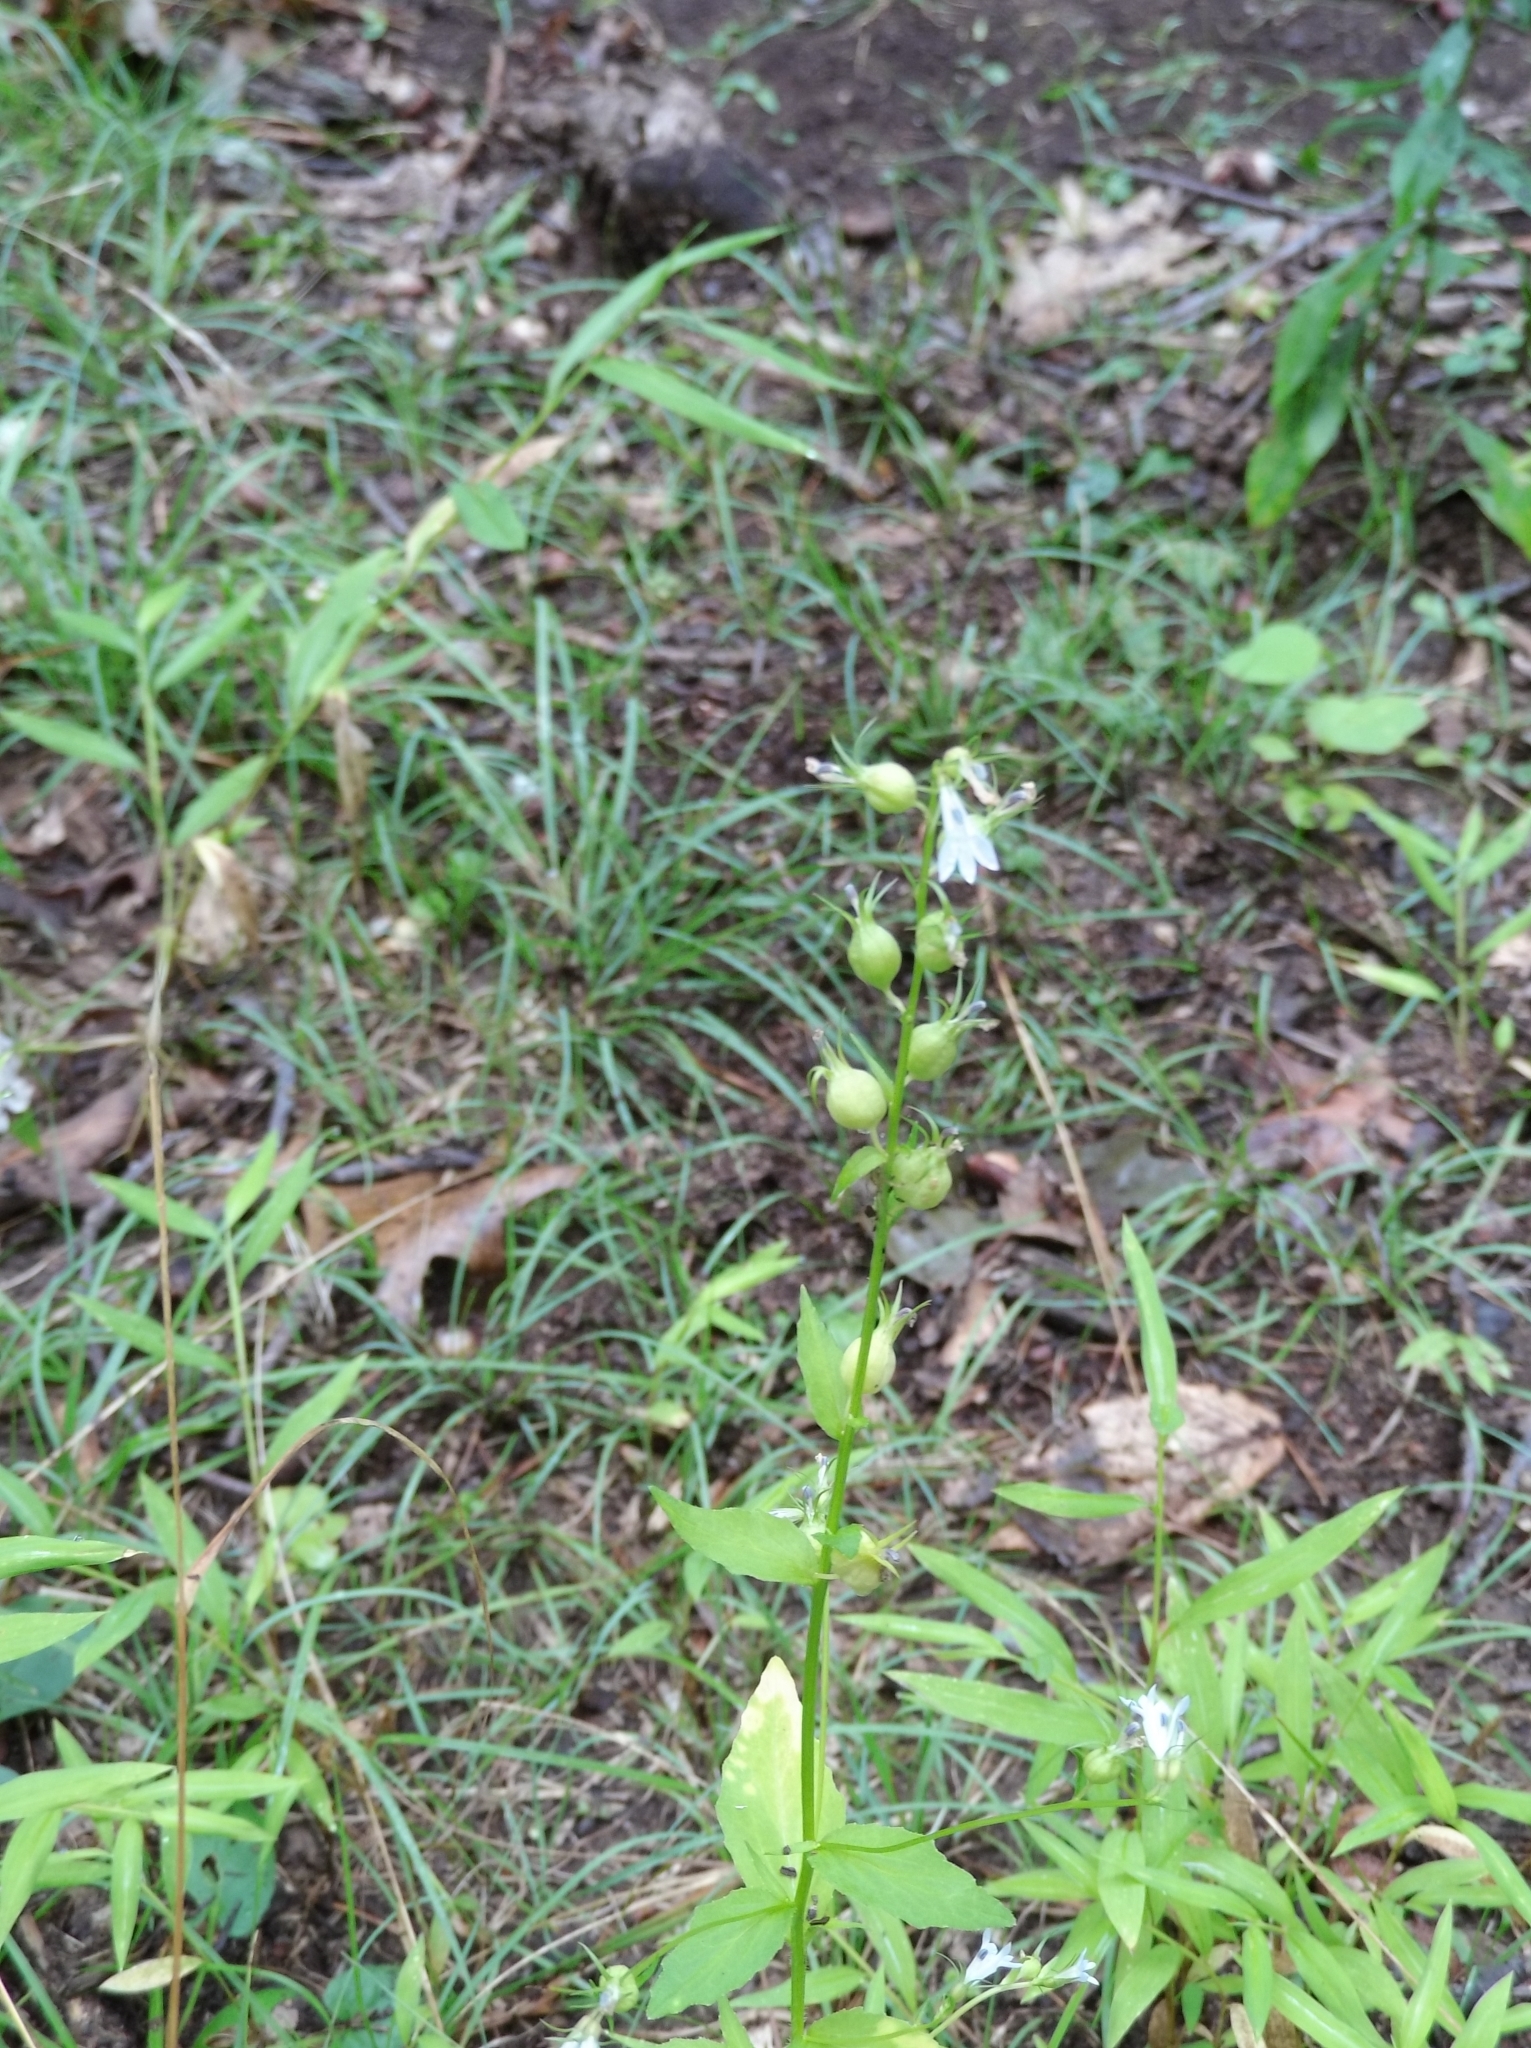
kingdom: Plantae
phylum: Tracheophyta
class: Magnoliopsida
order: Asterales
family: Campanulaceae
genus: Lobelia
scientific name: Lobelia inflata
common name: Indian tobacco
